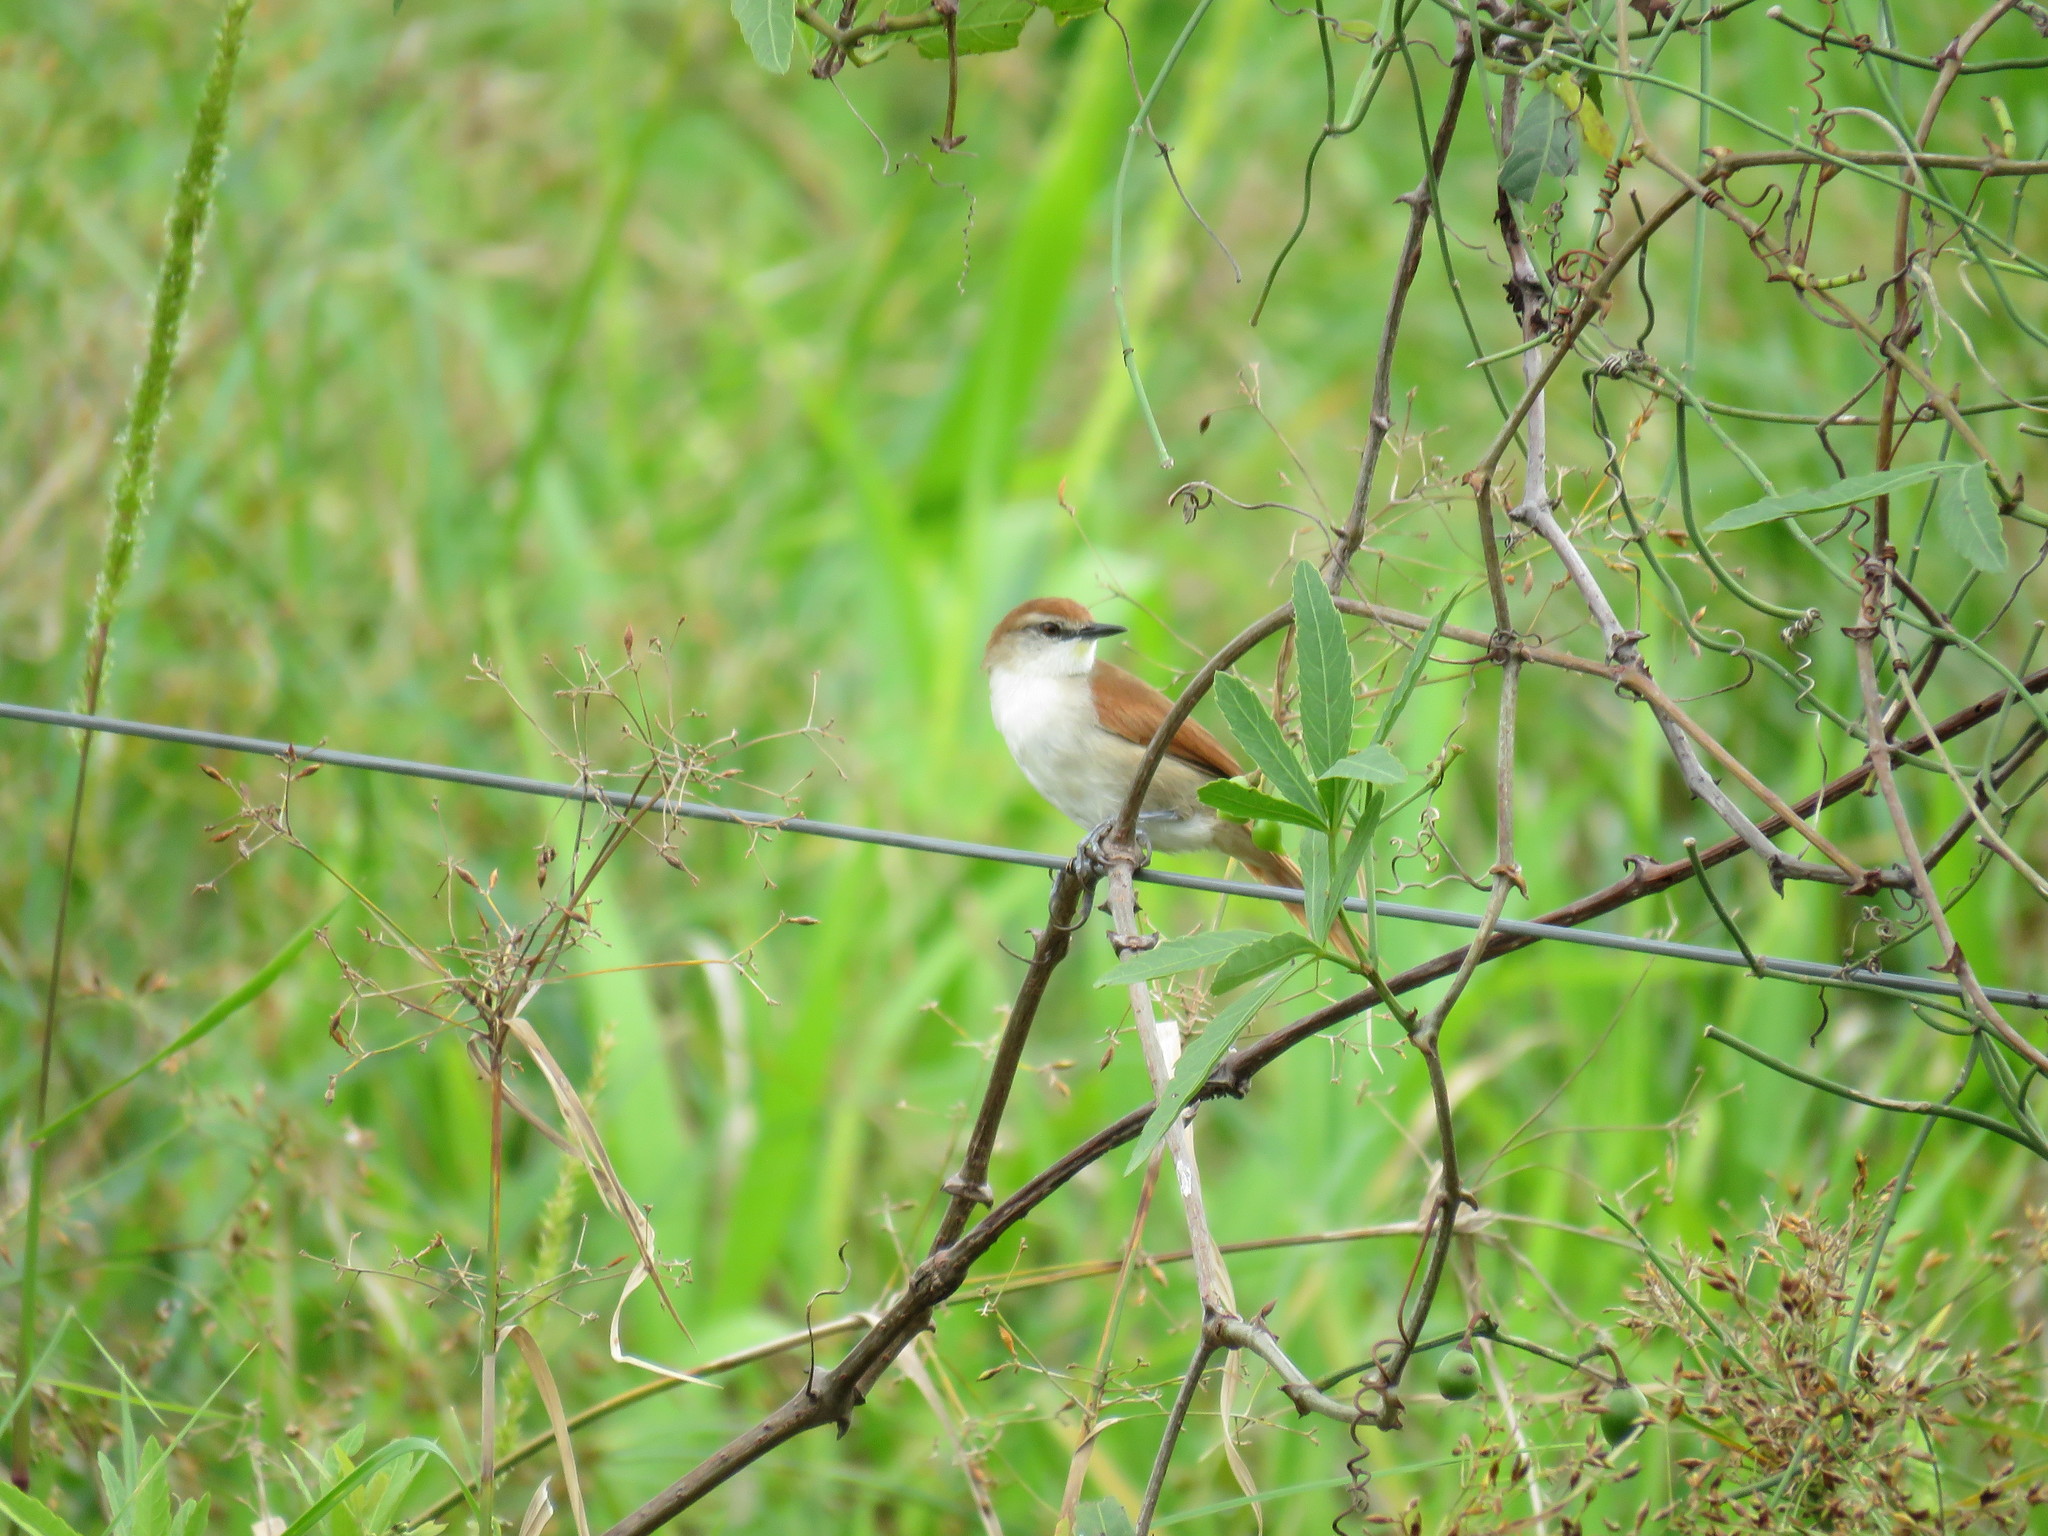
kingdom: Animalia
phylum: Chordata
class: Aves
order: Passeriformes
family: Furnariidae
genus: Certhiaxis
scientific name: Certhiaxis cinnamomeus
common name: Yellow-chinned spinetail
